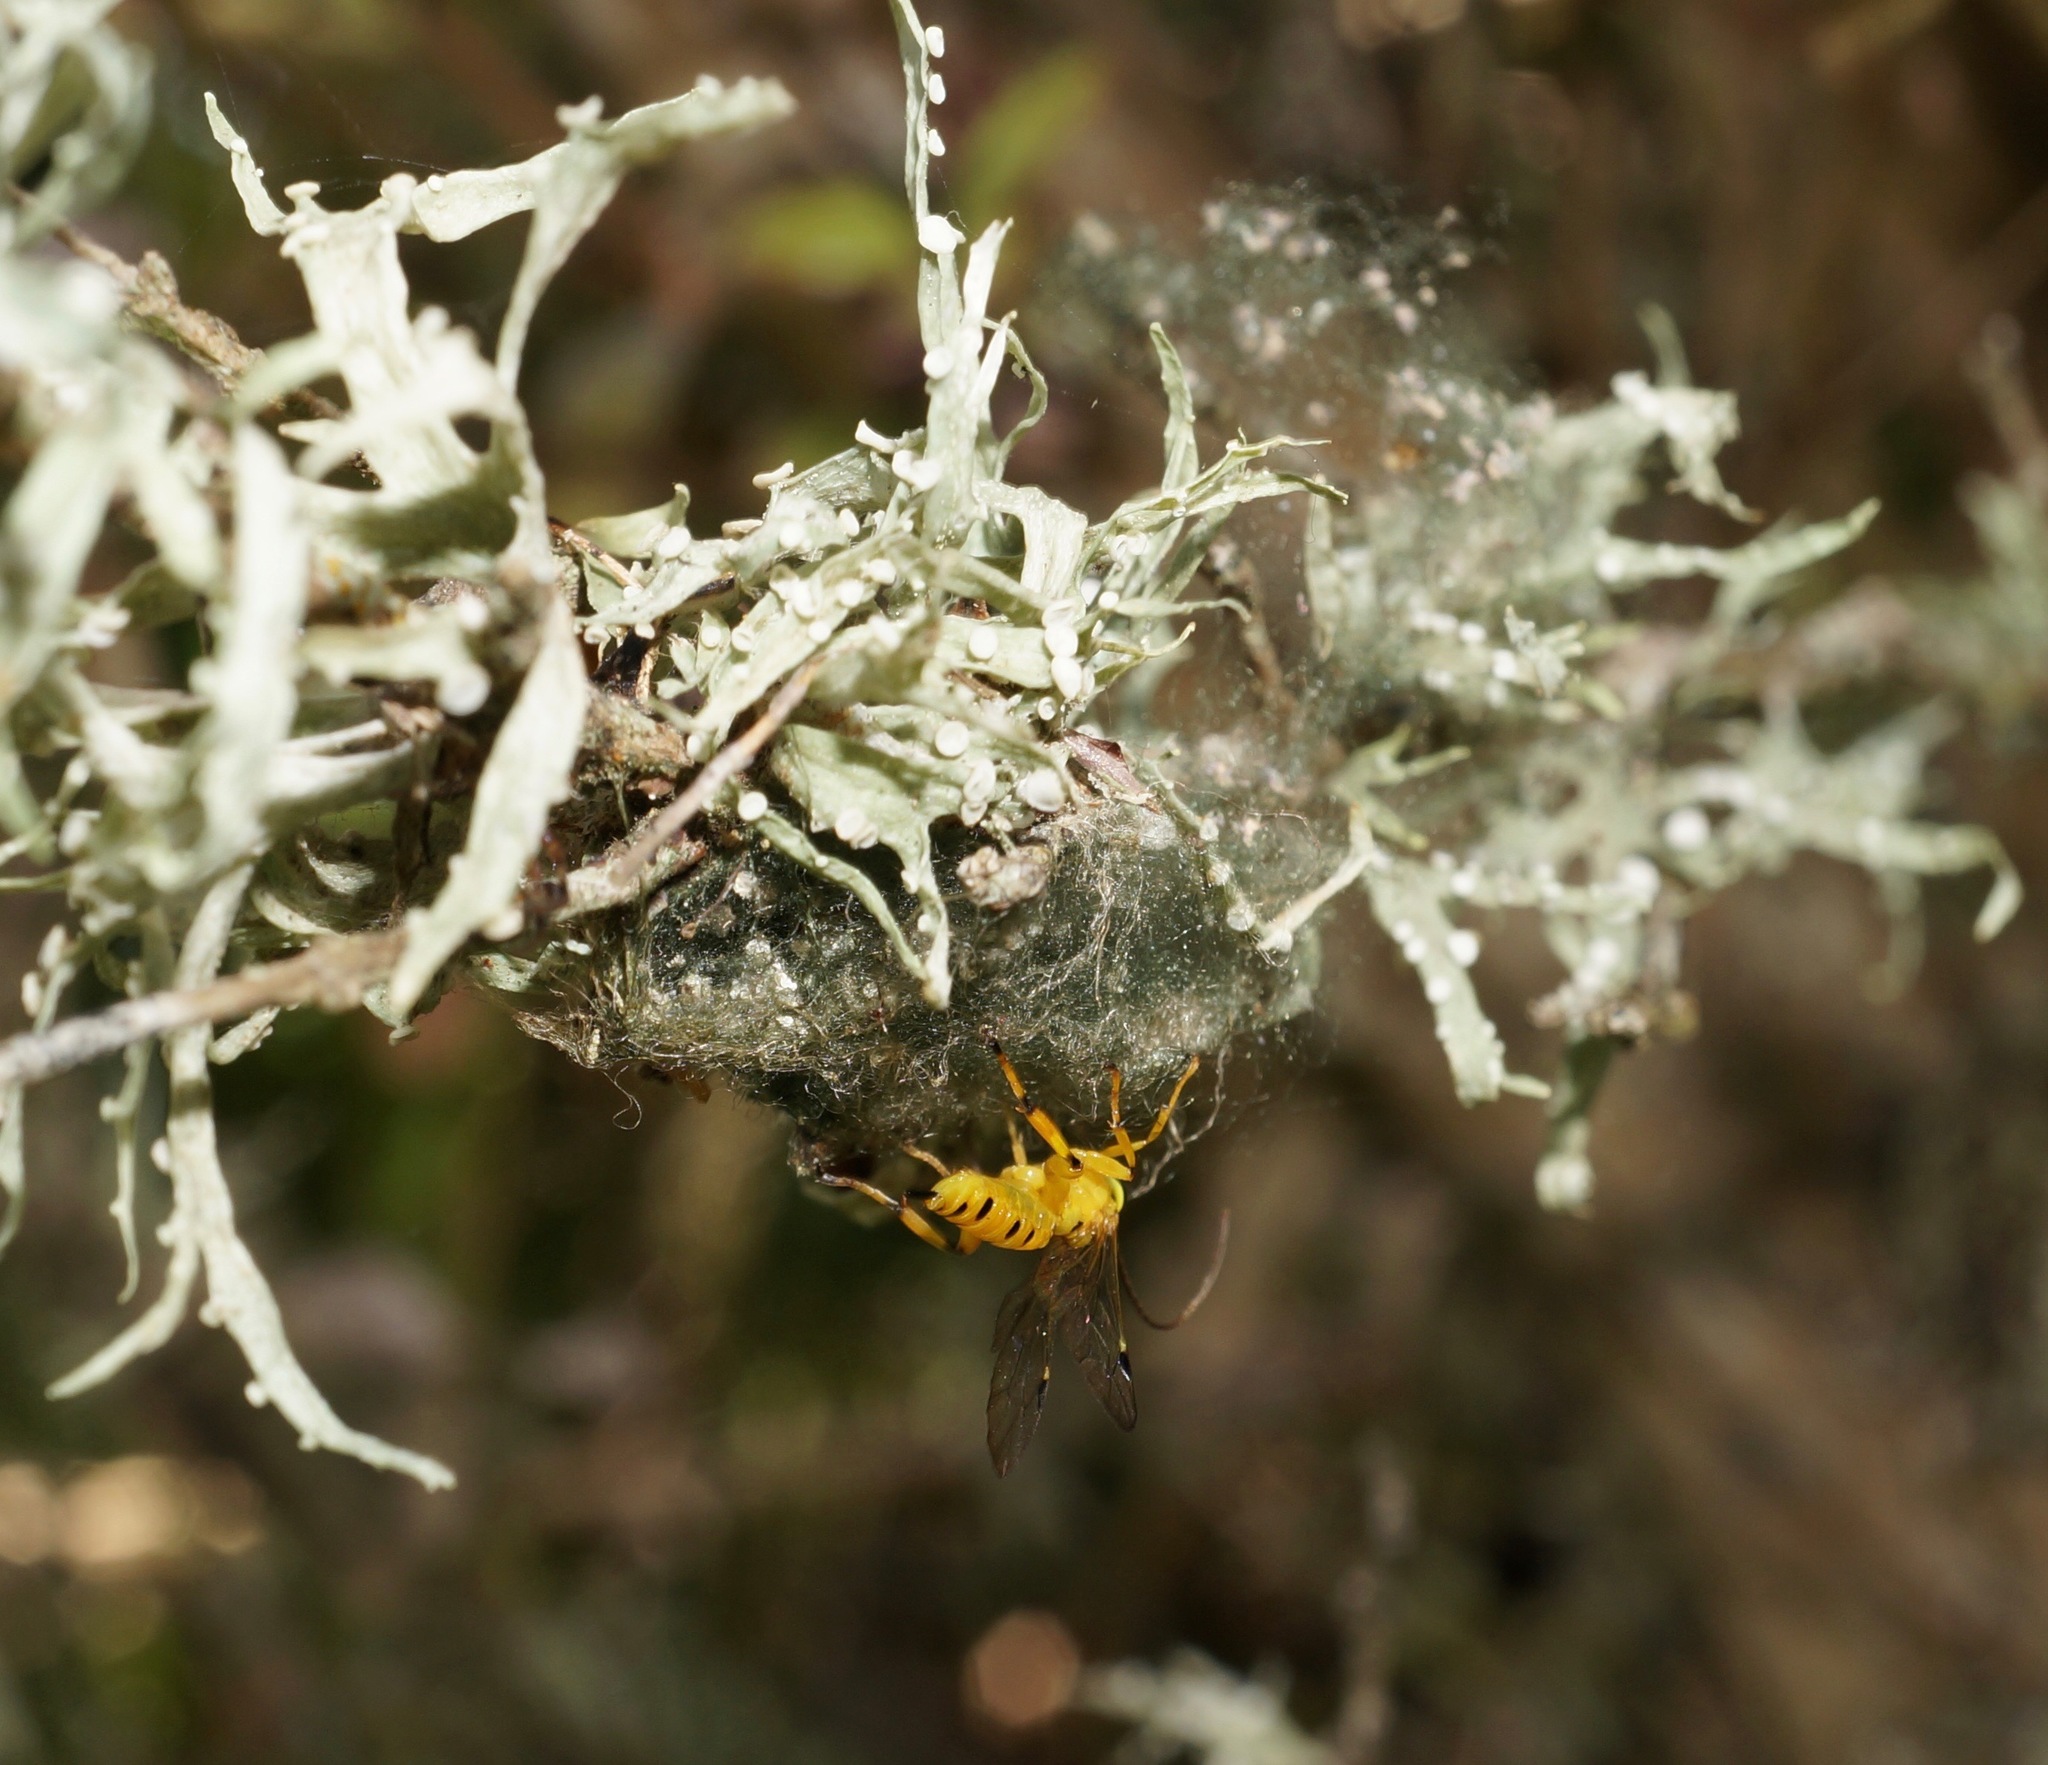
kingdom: Animalia
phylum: Arthropoda
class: Insecta
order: Hymenoptera
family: Ichneumonidae
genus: Xanthopimpla
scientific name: Xanthopimpla rhopaloceros
